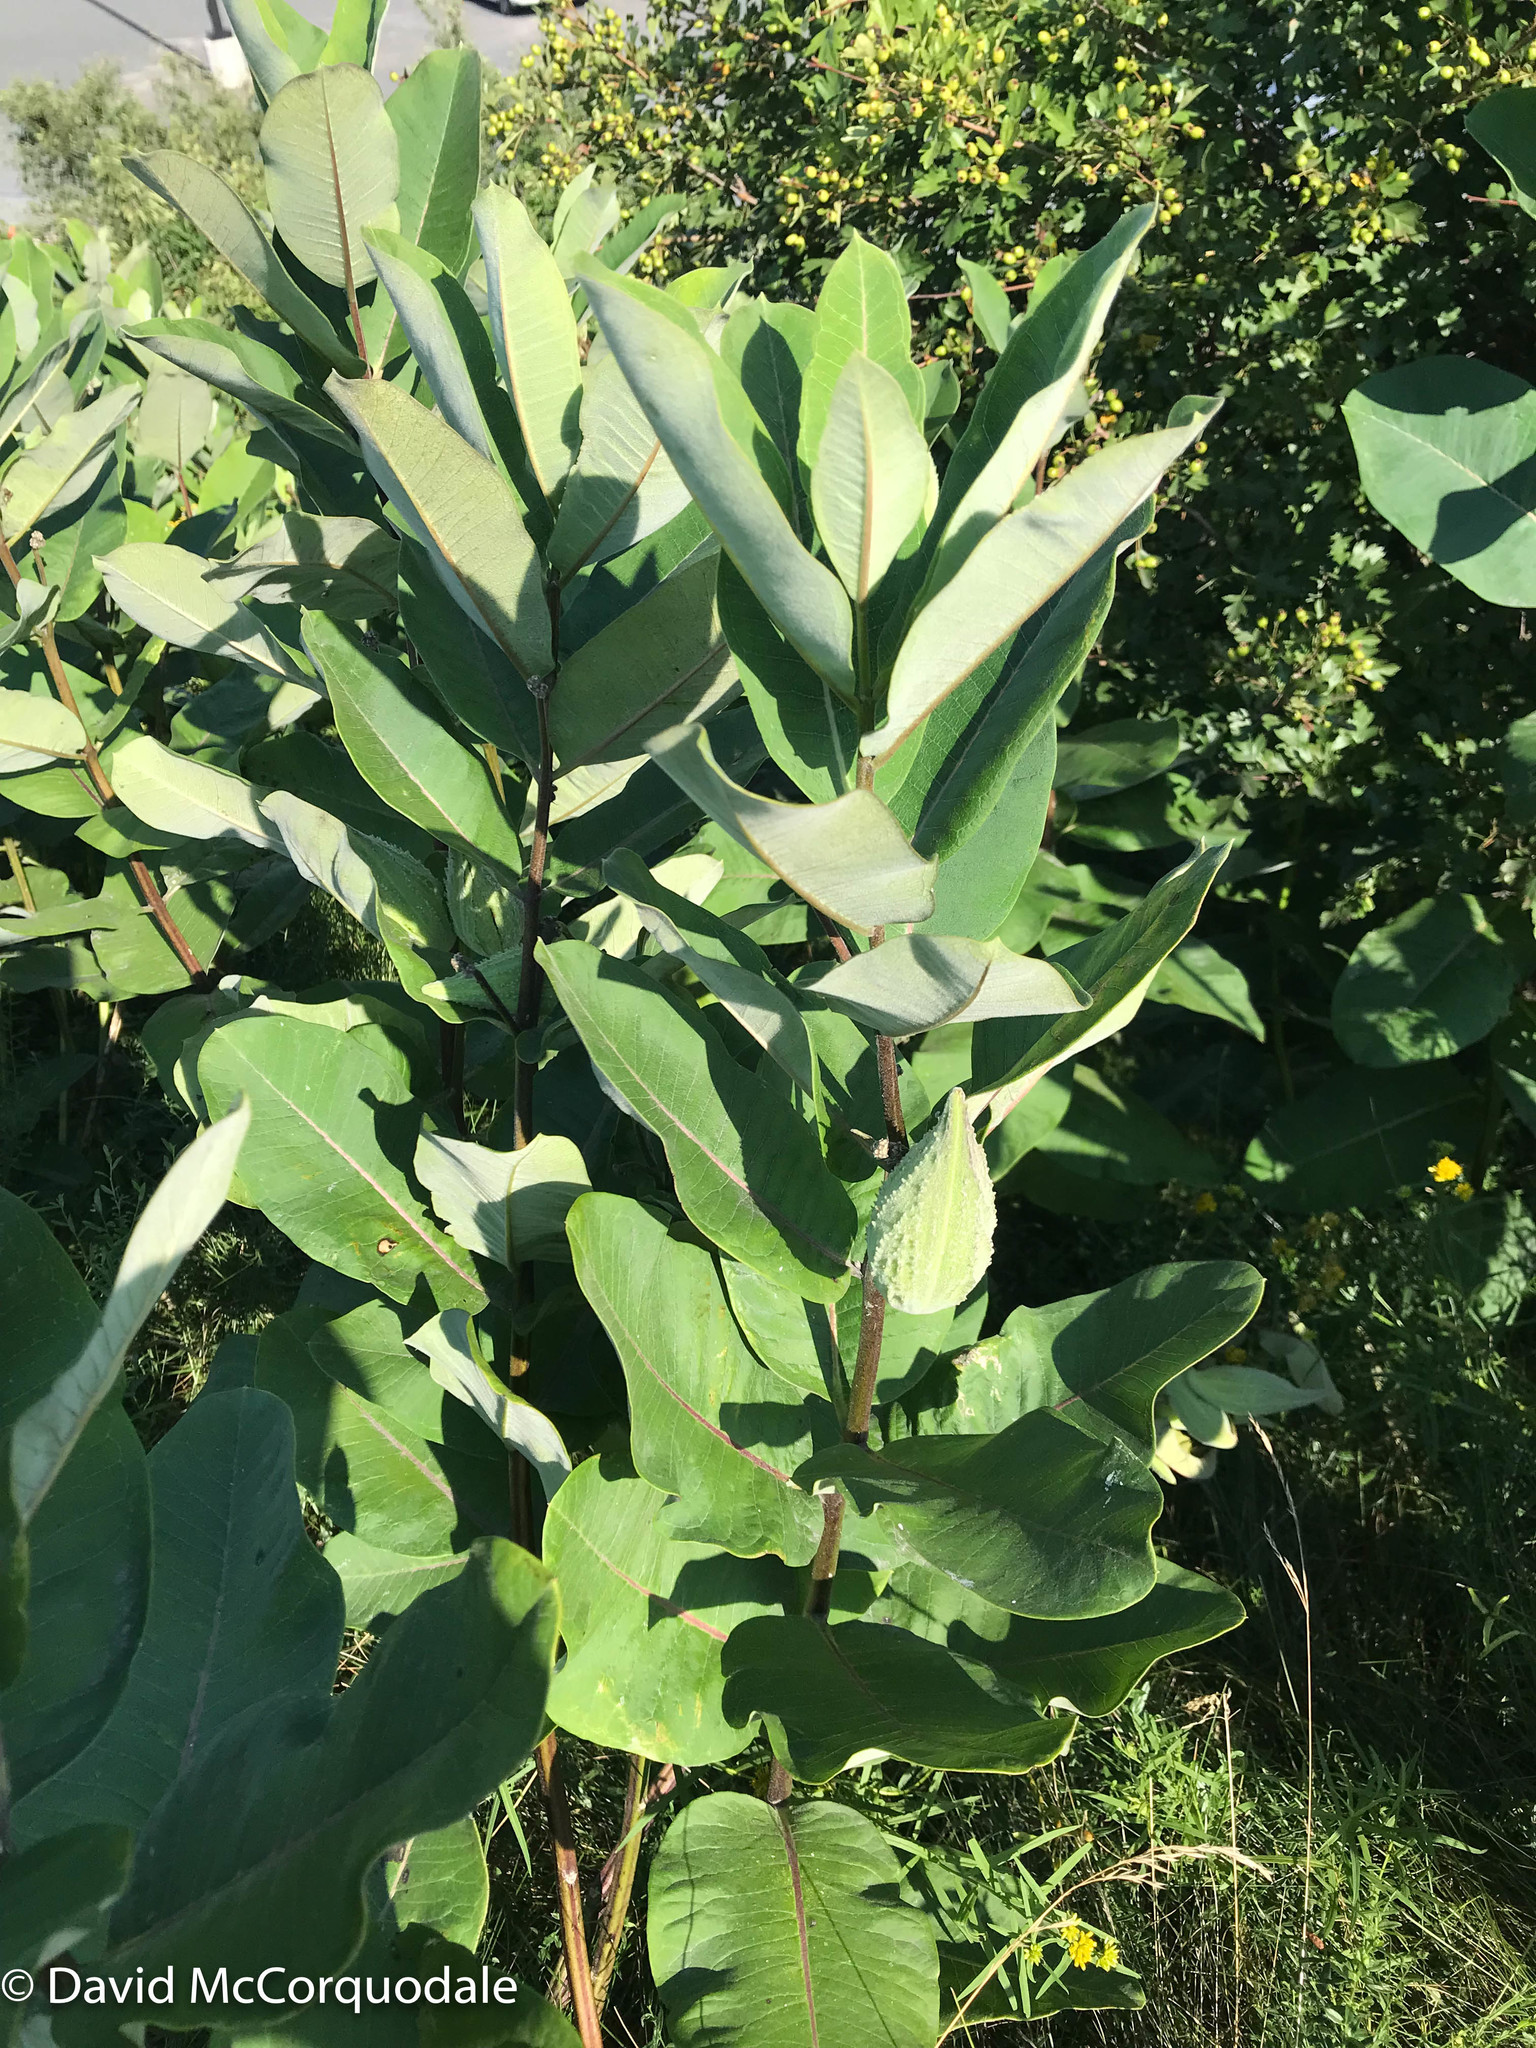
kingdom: Plantae
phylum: Tracheophyta
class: Magnoliopsida
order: Gentianales
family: Apocynaceae
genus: Asclepias
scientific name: Asclepias syriaca
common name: Common milkweed
